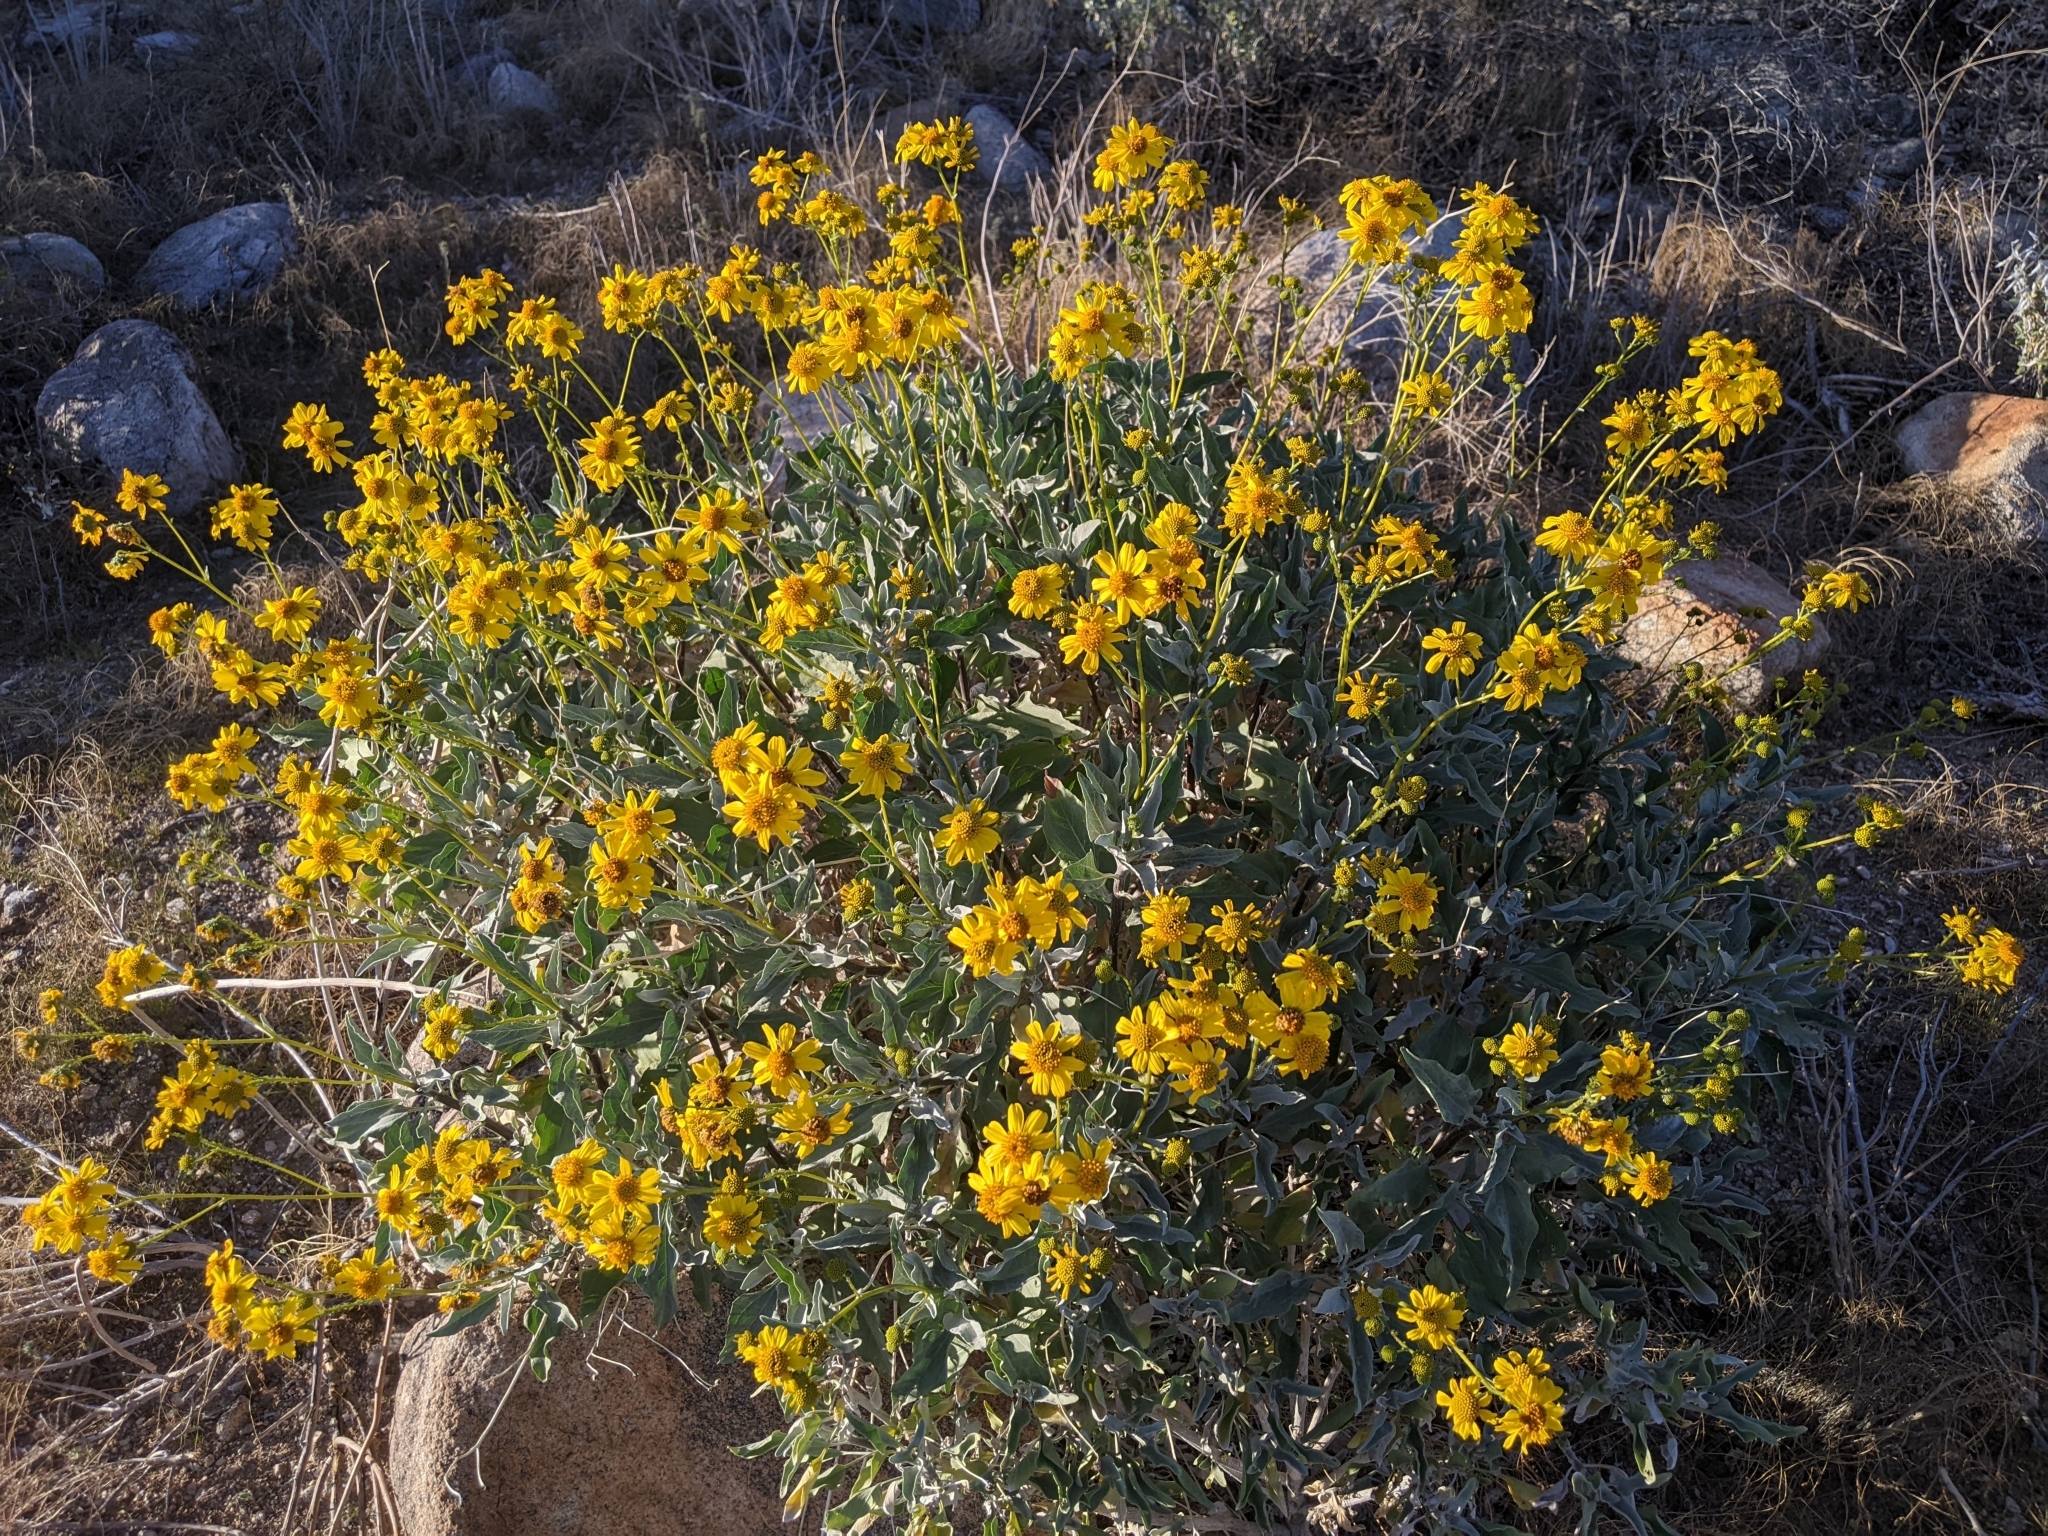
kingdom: Plantae
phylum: Tracheophyta
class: Magnoliopsida
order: Asterales
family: Asteraceae
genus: Encelia
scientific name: Encelia farinosa
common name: Brittlebush
